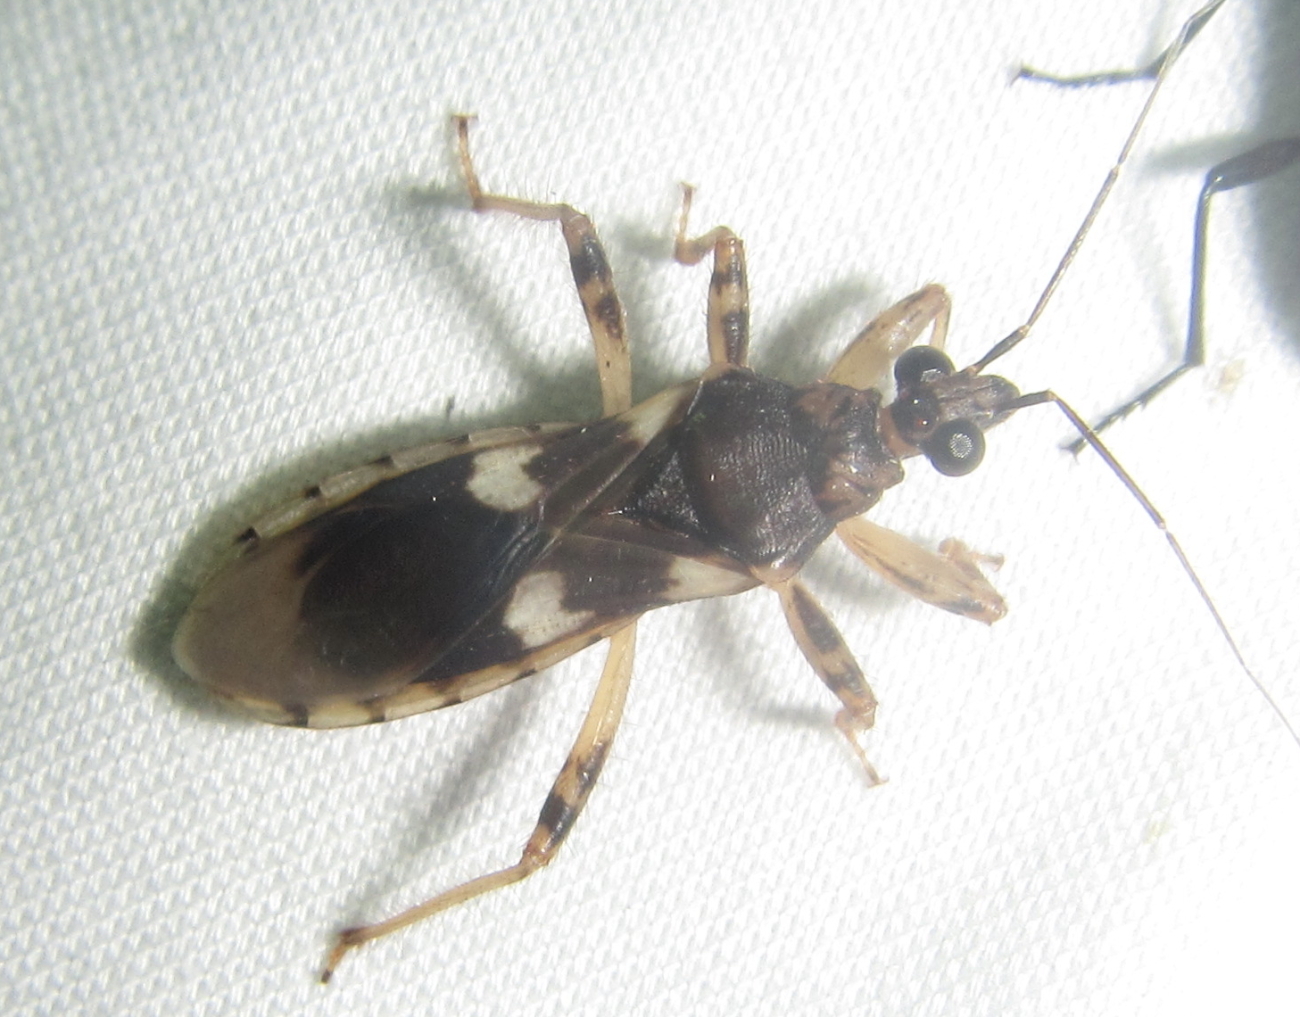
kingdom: Animalia
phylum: Arthropoda
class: Insecta
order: Hemiptera
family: Reduviidae
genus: Varus
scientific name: Varus flavoannulatus
